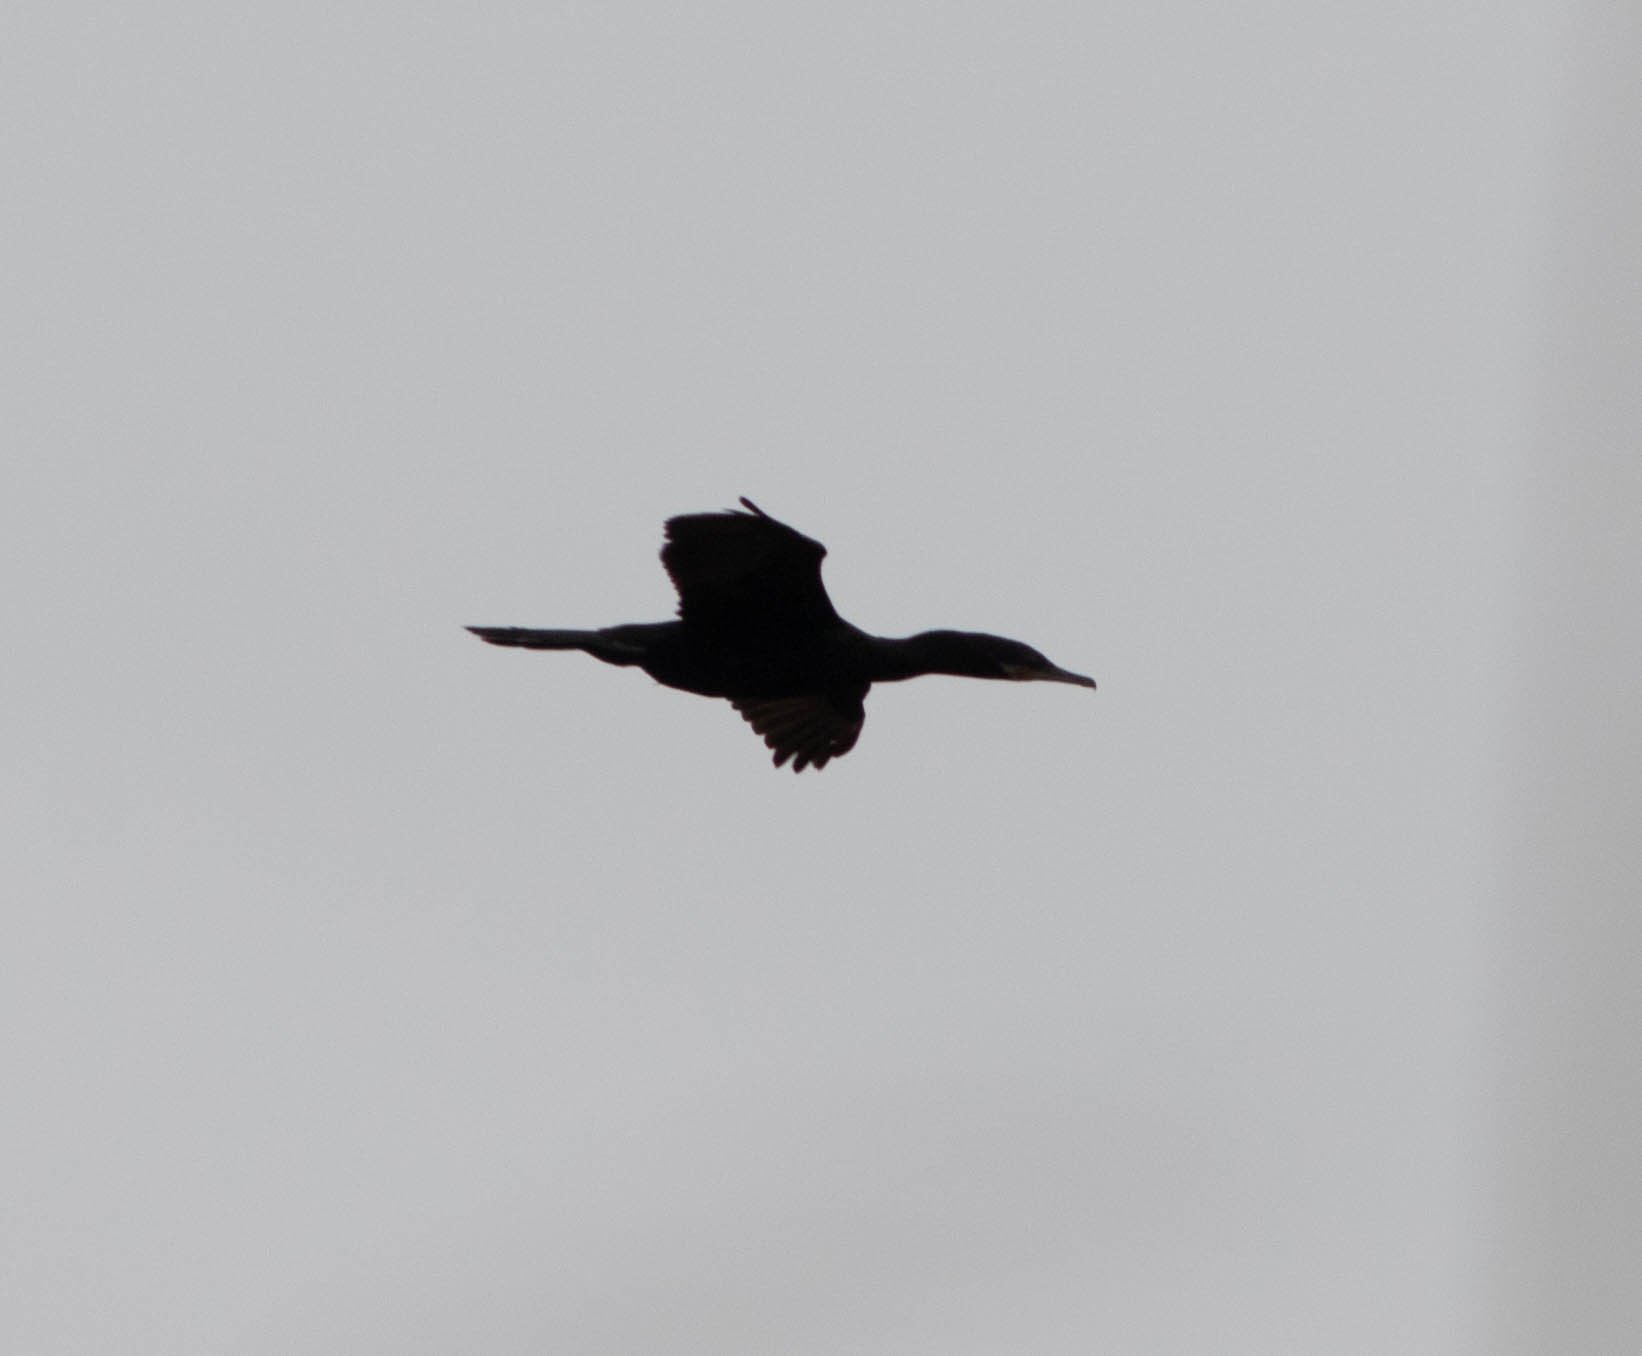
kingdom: Animalia
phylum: Chordata
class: Aves
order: Suliformes
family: Phalacrocoracidae
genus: Phalacrocorax
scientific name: Phalacrocorax brasilianus
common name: Neotropic cormorant
